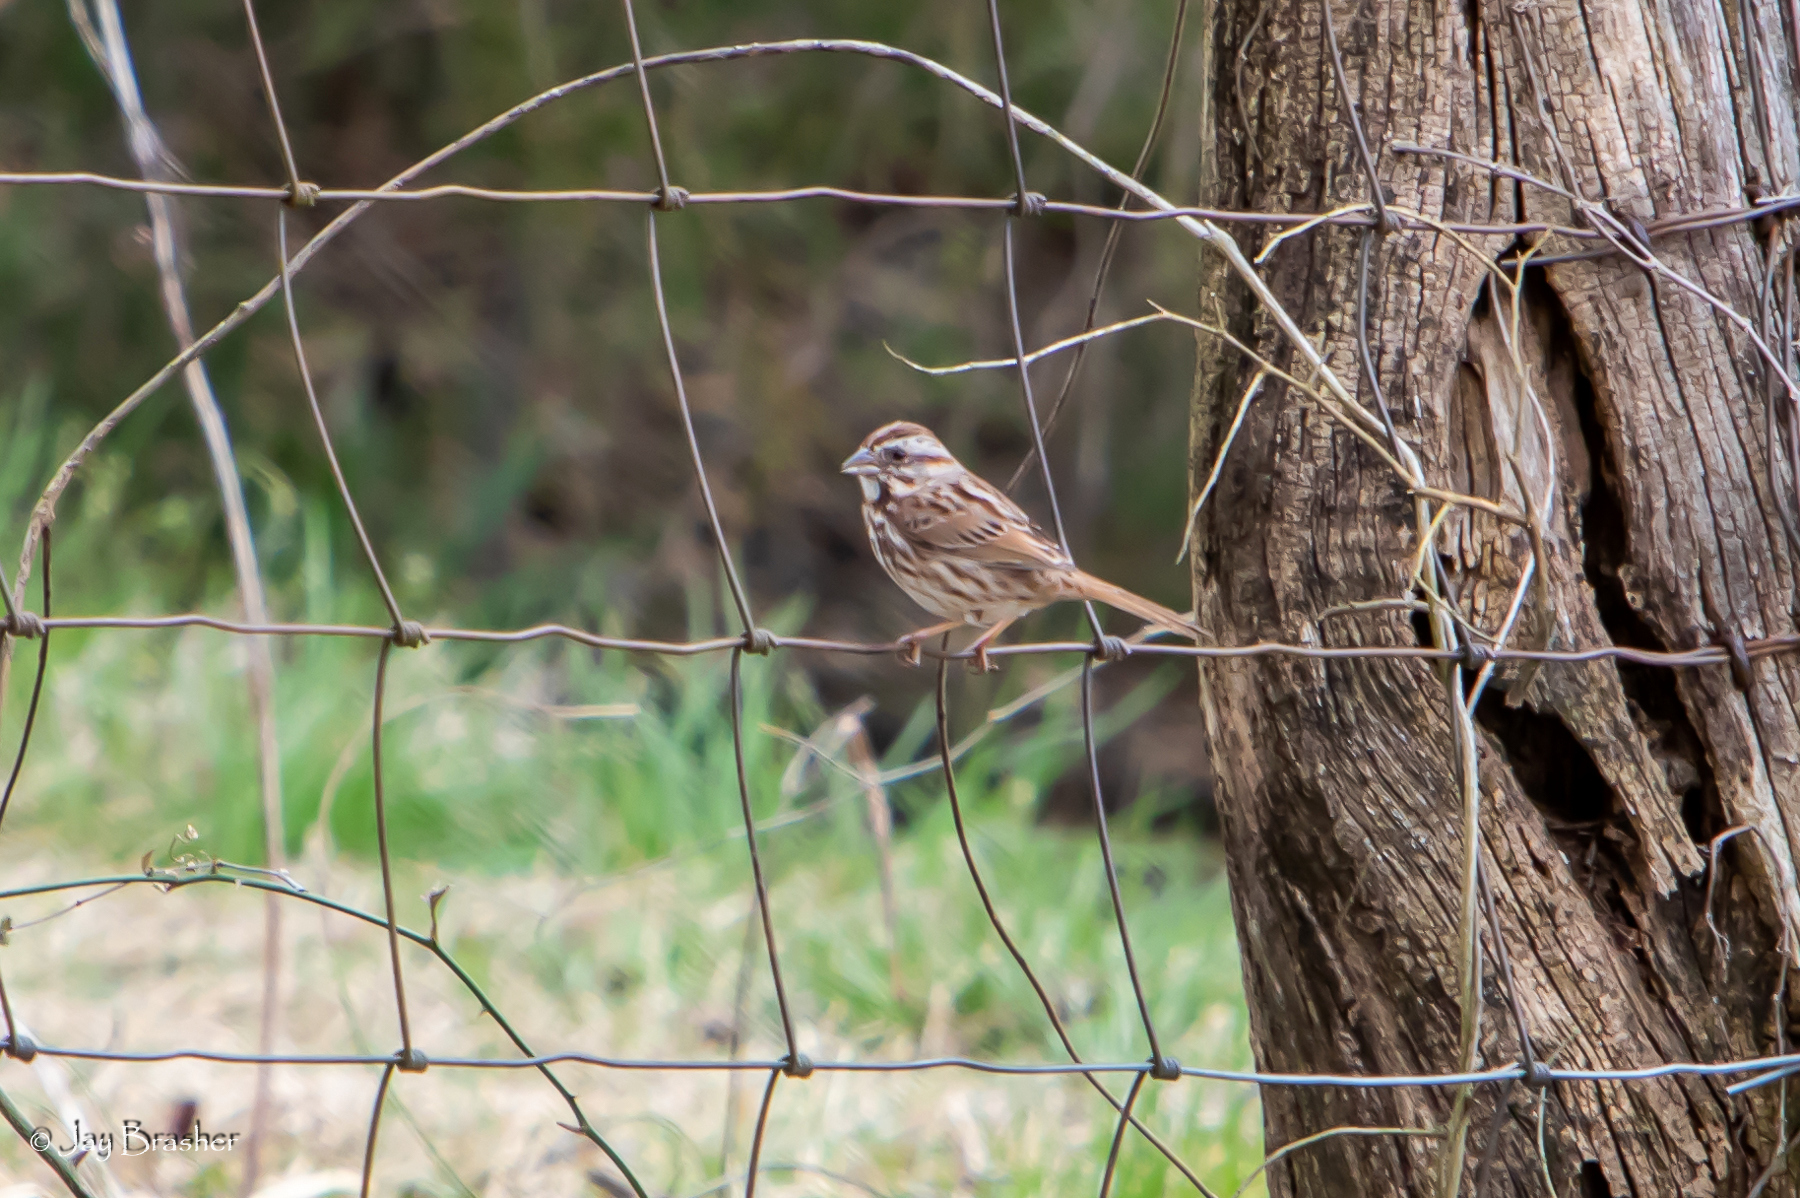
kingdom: Animalia
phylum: Chordata
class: Aves
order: Passeriformes
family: Passerellidae
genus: Melospiza
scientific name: Melospiza melodia
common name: Song sparrow
